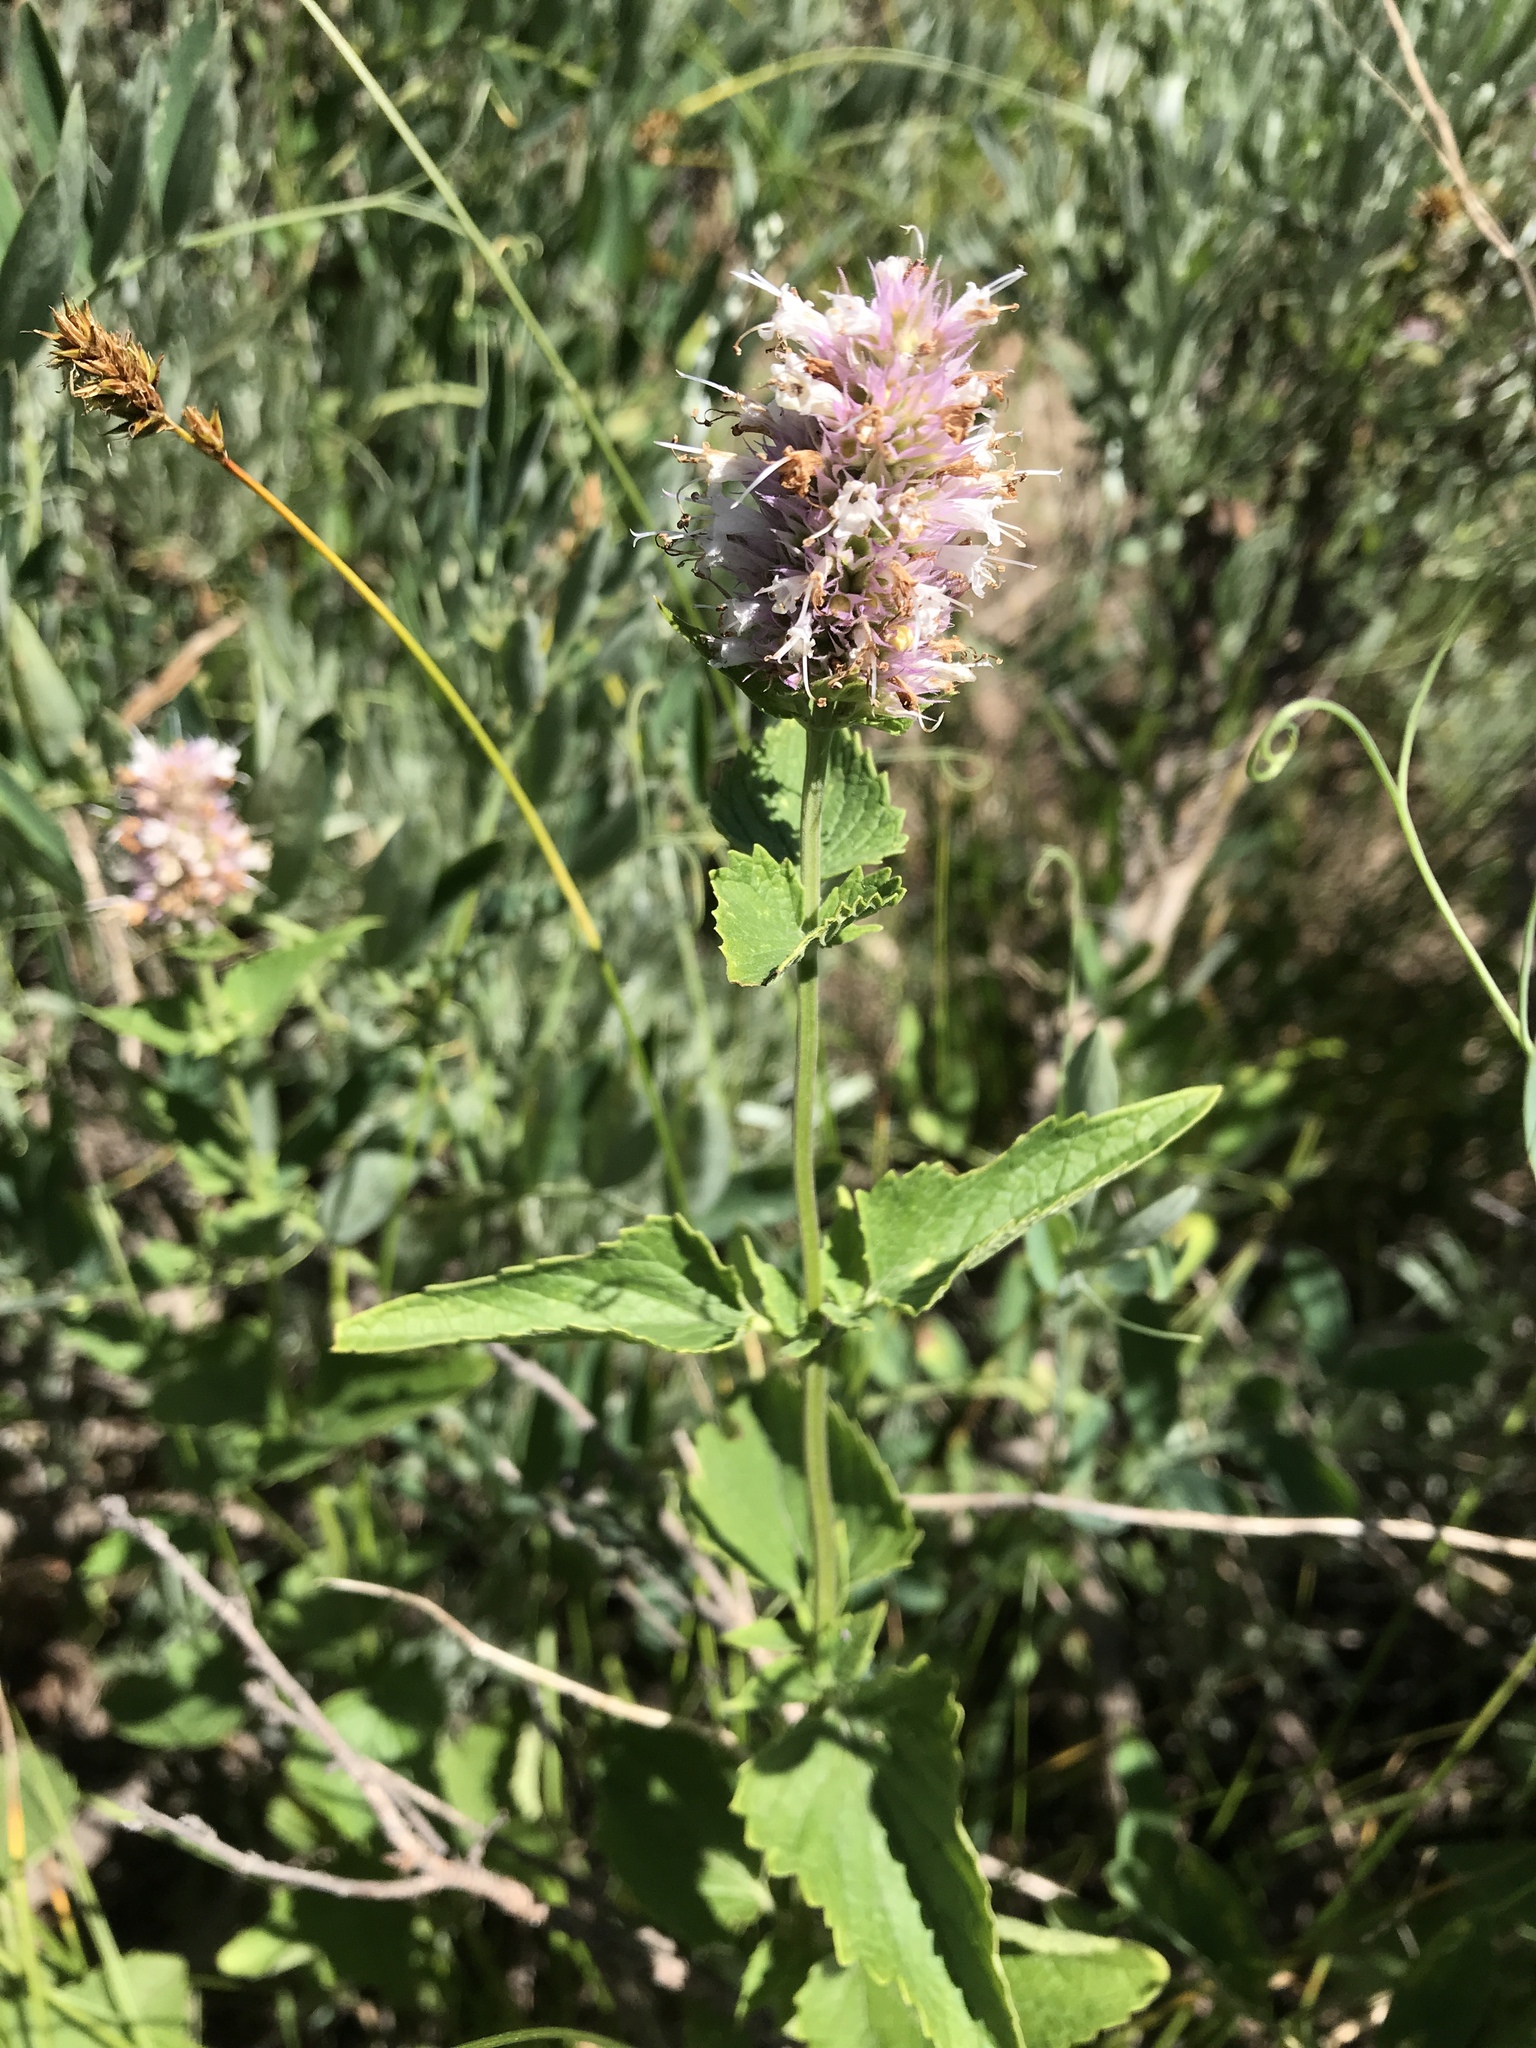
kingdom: Plantae
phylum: Tracheophyta
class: Magnoliopsida
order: Lamiales
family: Lamiaceae
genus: Agastache
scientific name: Agastache urticifolia
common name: Horsemint giant hyssop
